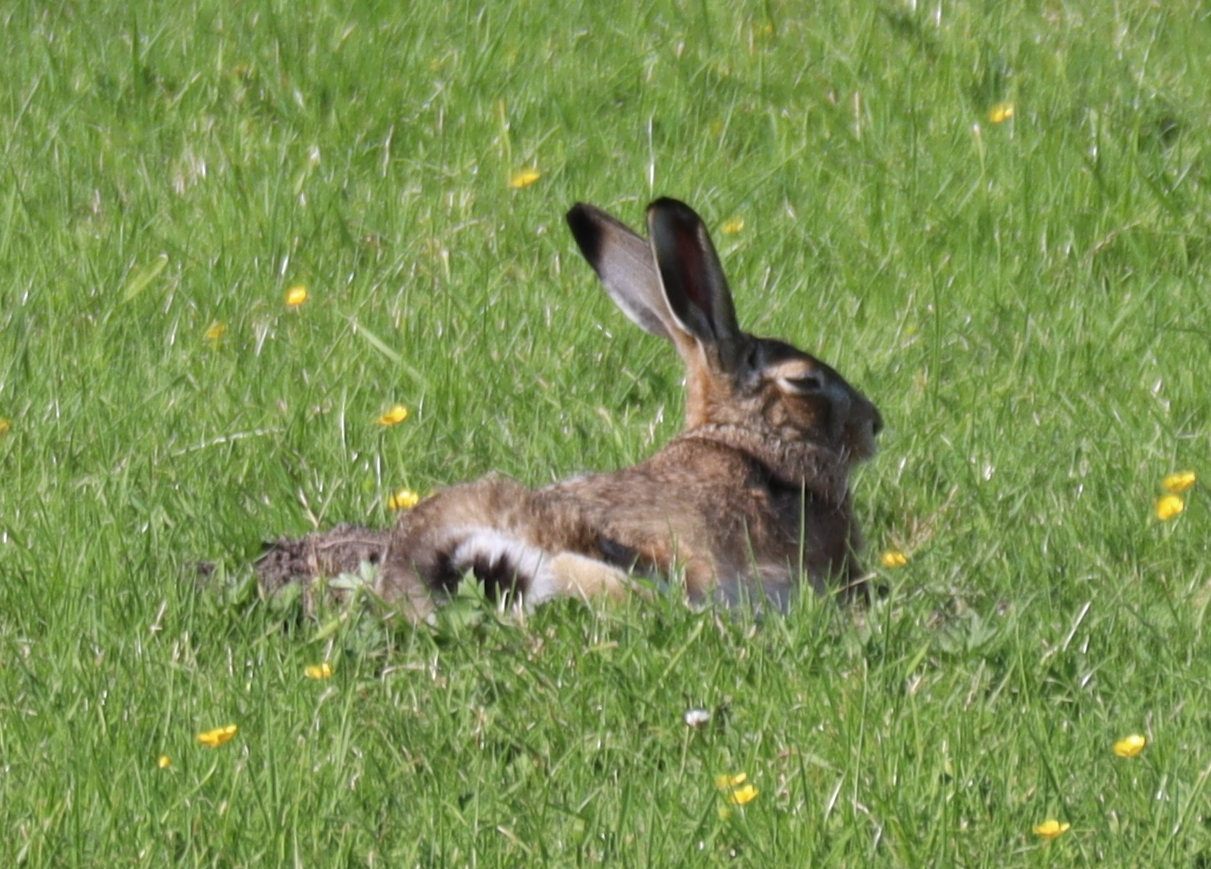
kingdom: Animalia
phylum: Chordata
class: Mammalia
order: Lagomorpha
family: Leporidae
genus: Lepus
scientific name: Lepus europaeus
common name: European hare
